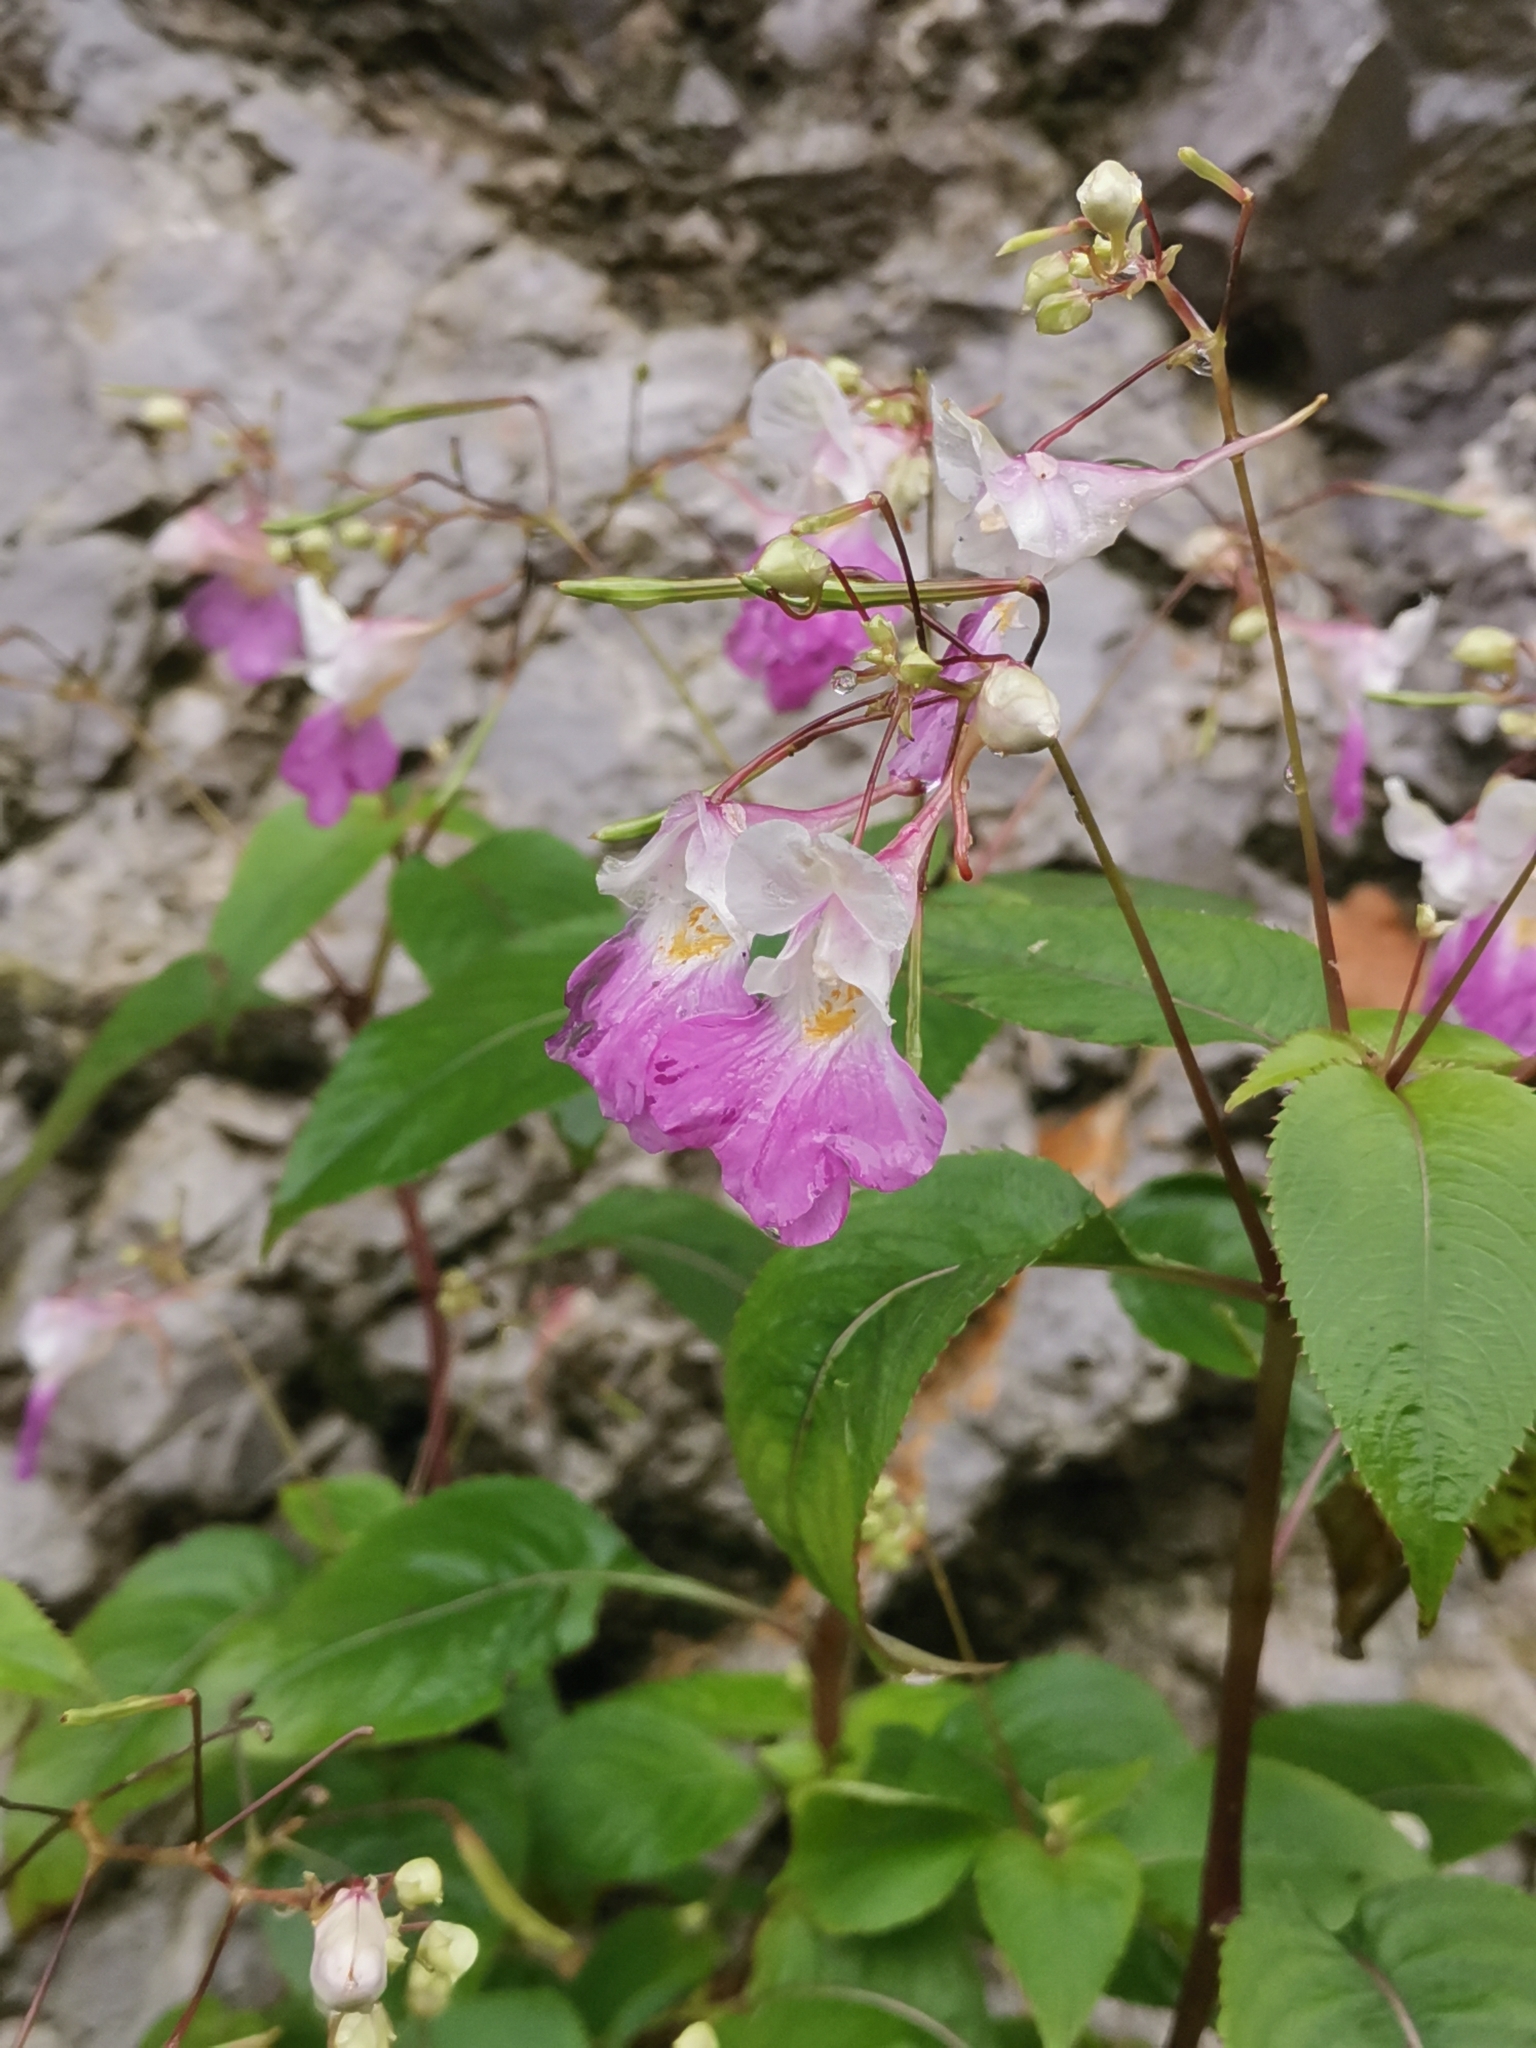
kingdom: Plantae
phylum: Tracheophyta
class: Magnoliopsida
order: Ericales
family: Balsaminaceae
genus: Impatiens
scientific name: Impatiens balfourii
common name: Balfour's touch-me-not
